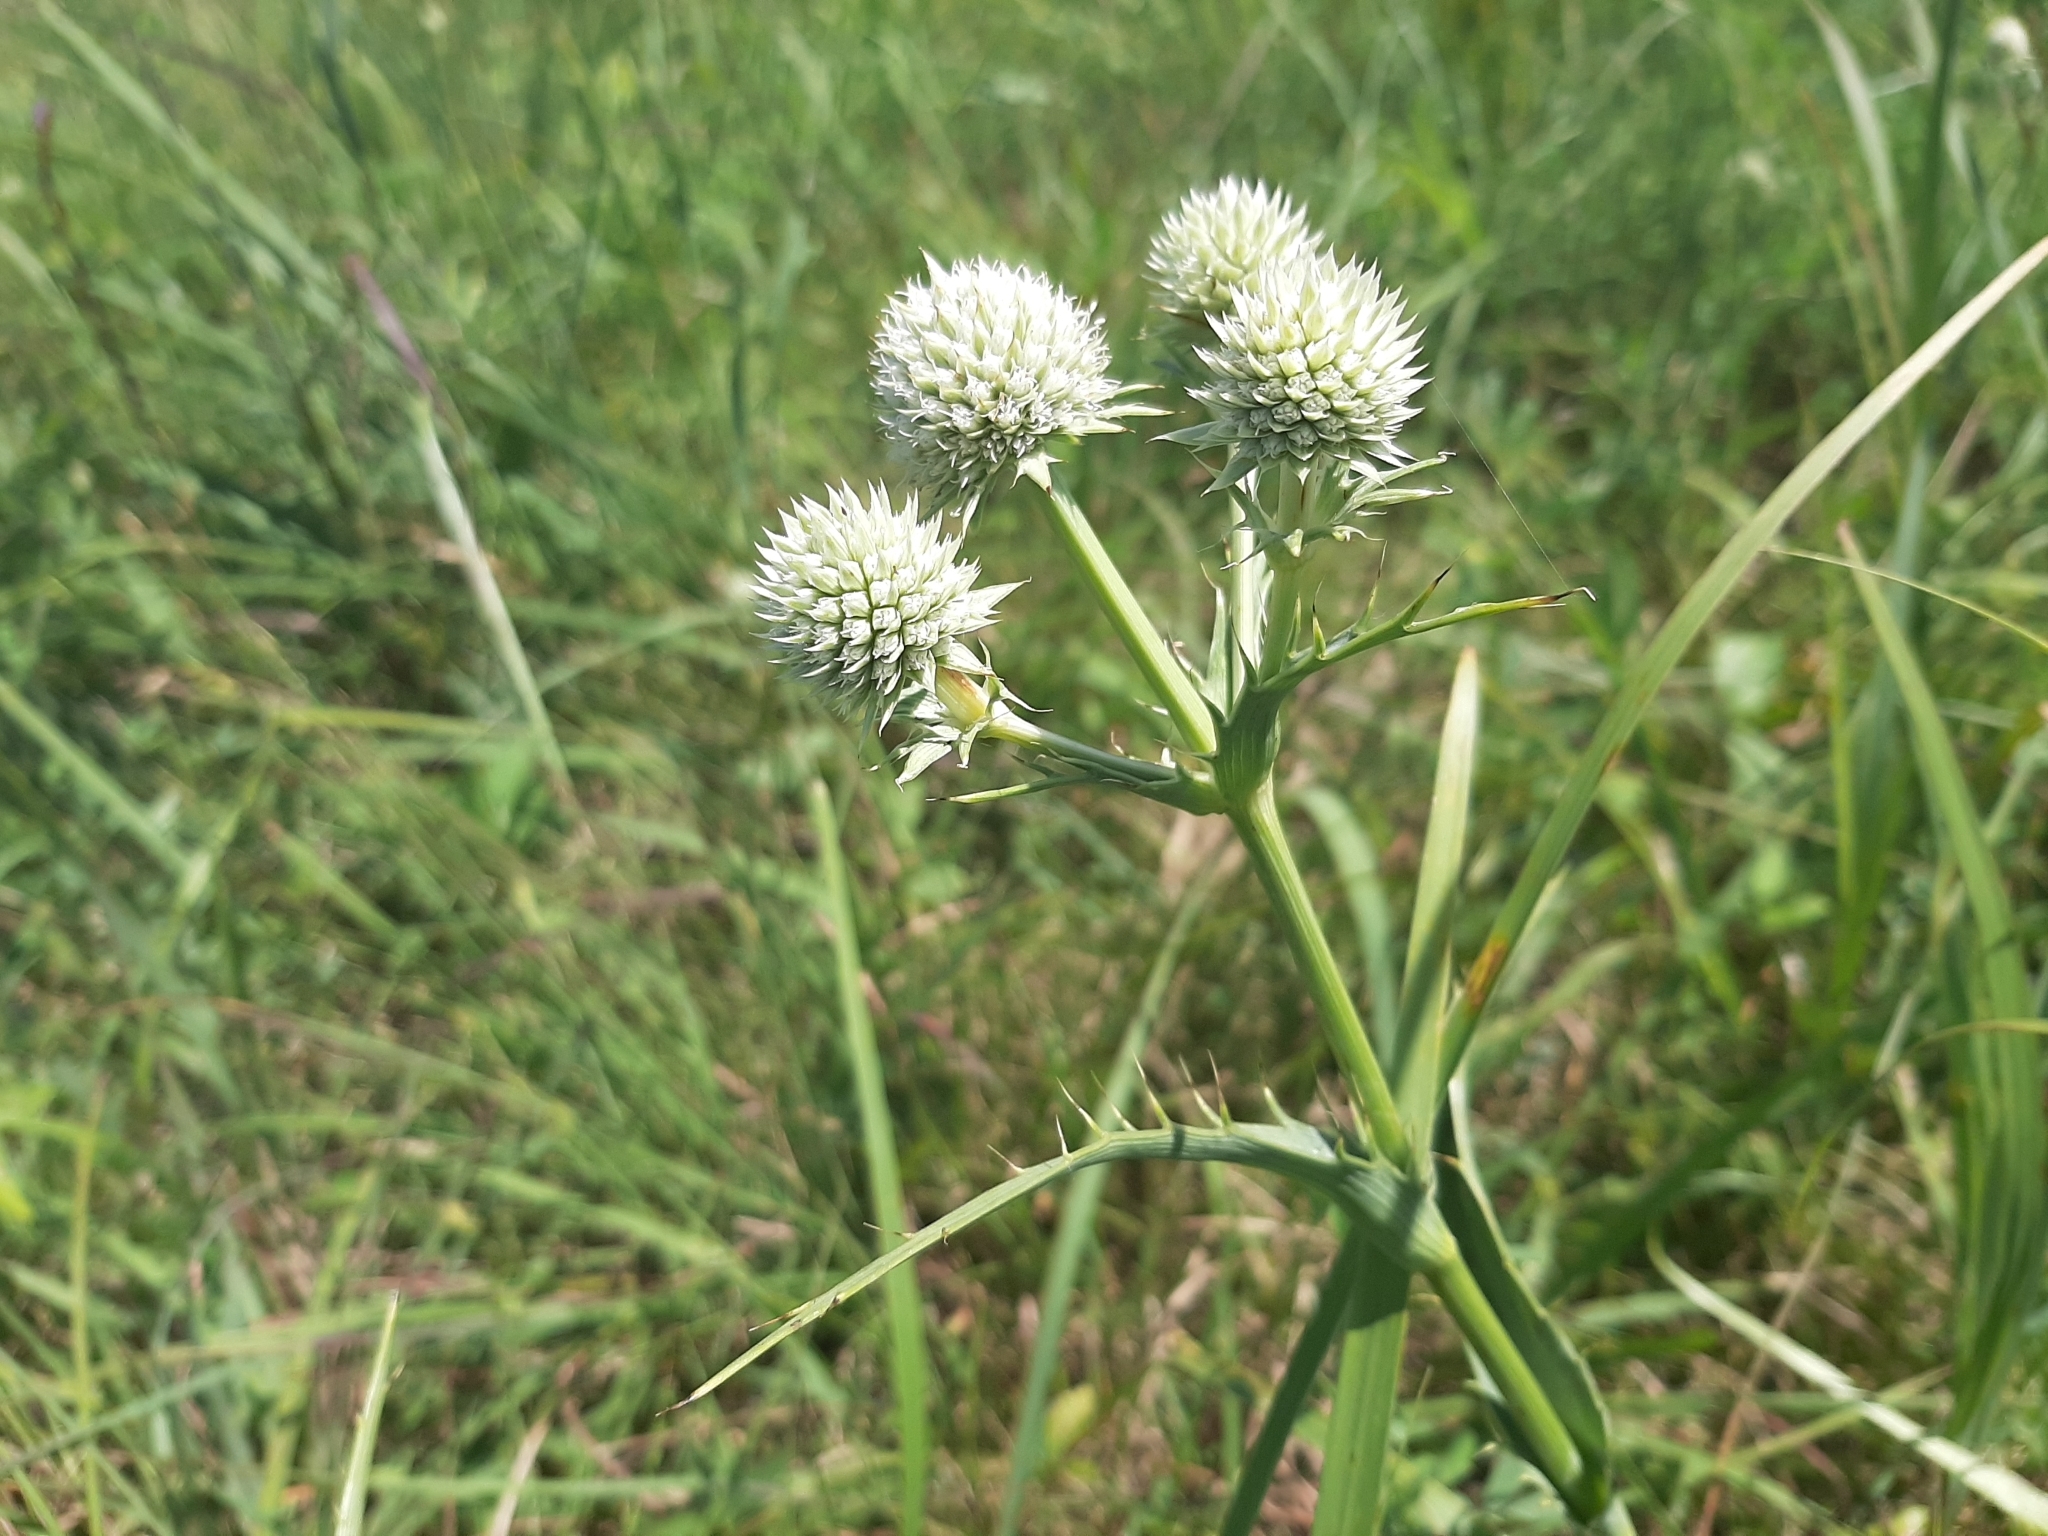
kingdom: Plantae
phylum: Tracheophyta
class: Magnoliopsida
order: Apiales
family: Apiaceae
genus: Eryngium
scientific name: Eryngium yuccifolium
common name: Button eryngo
